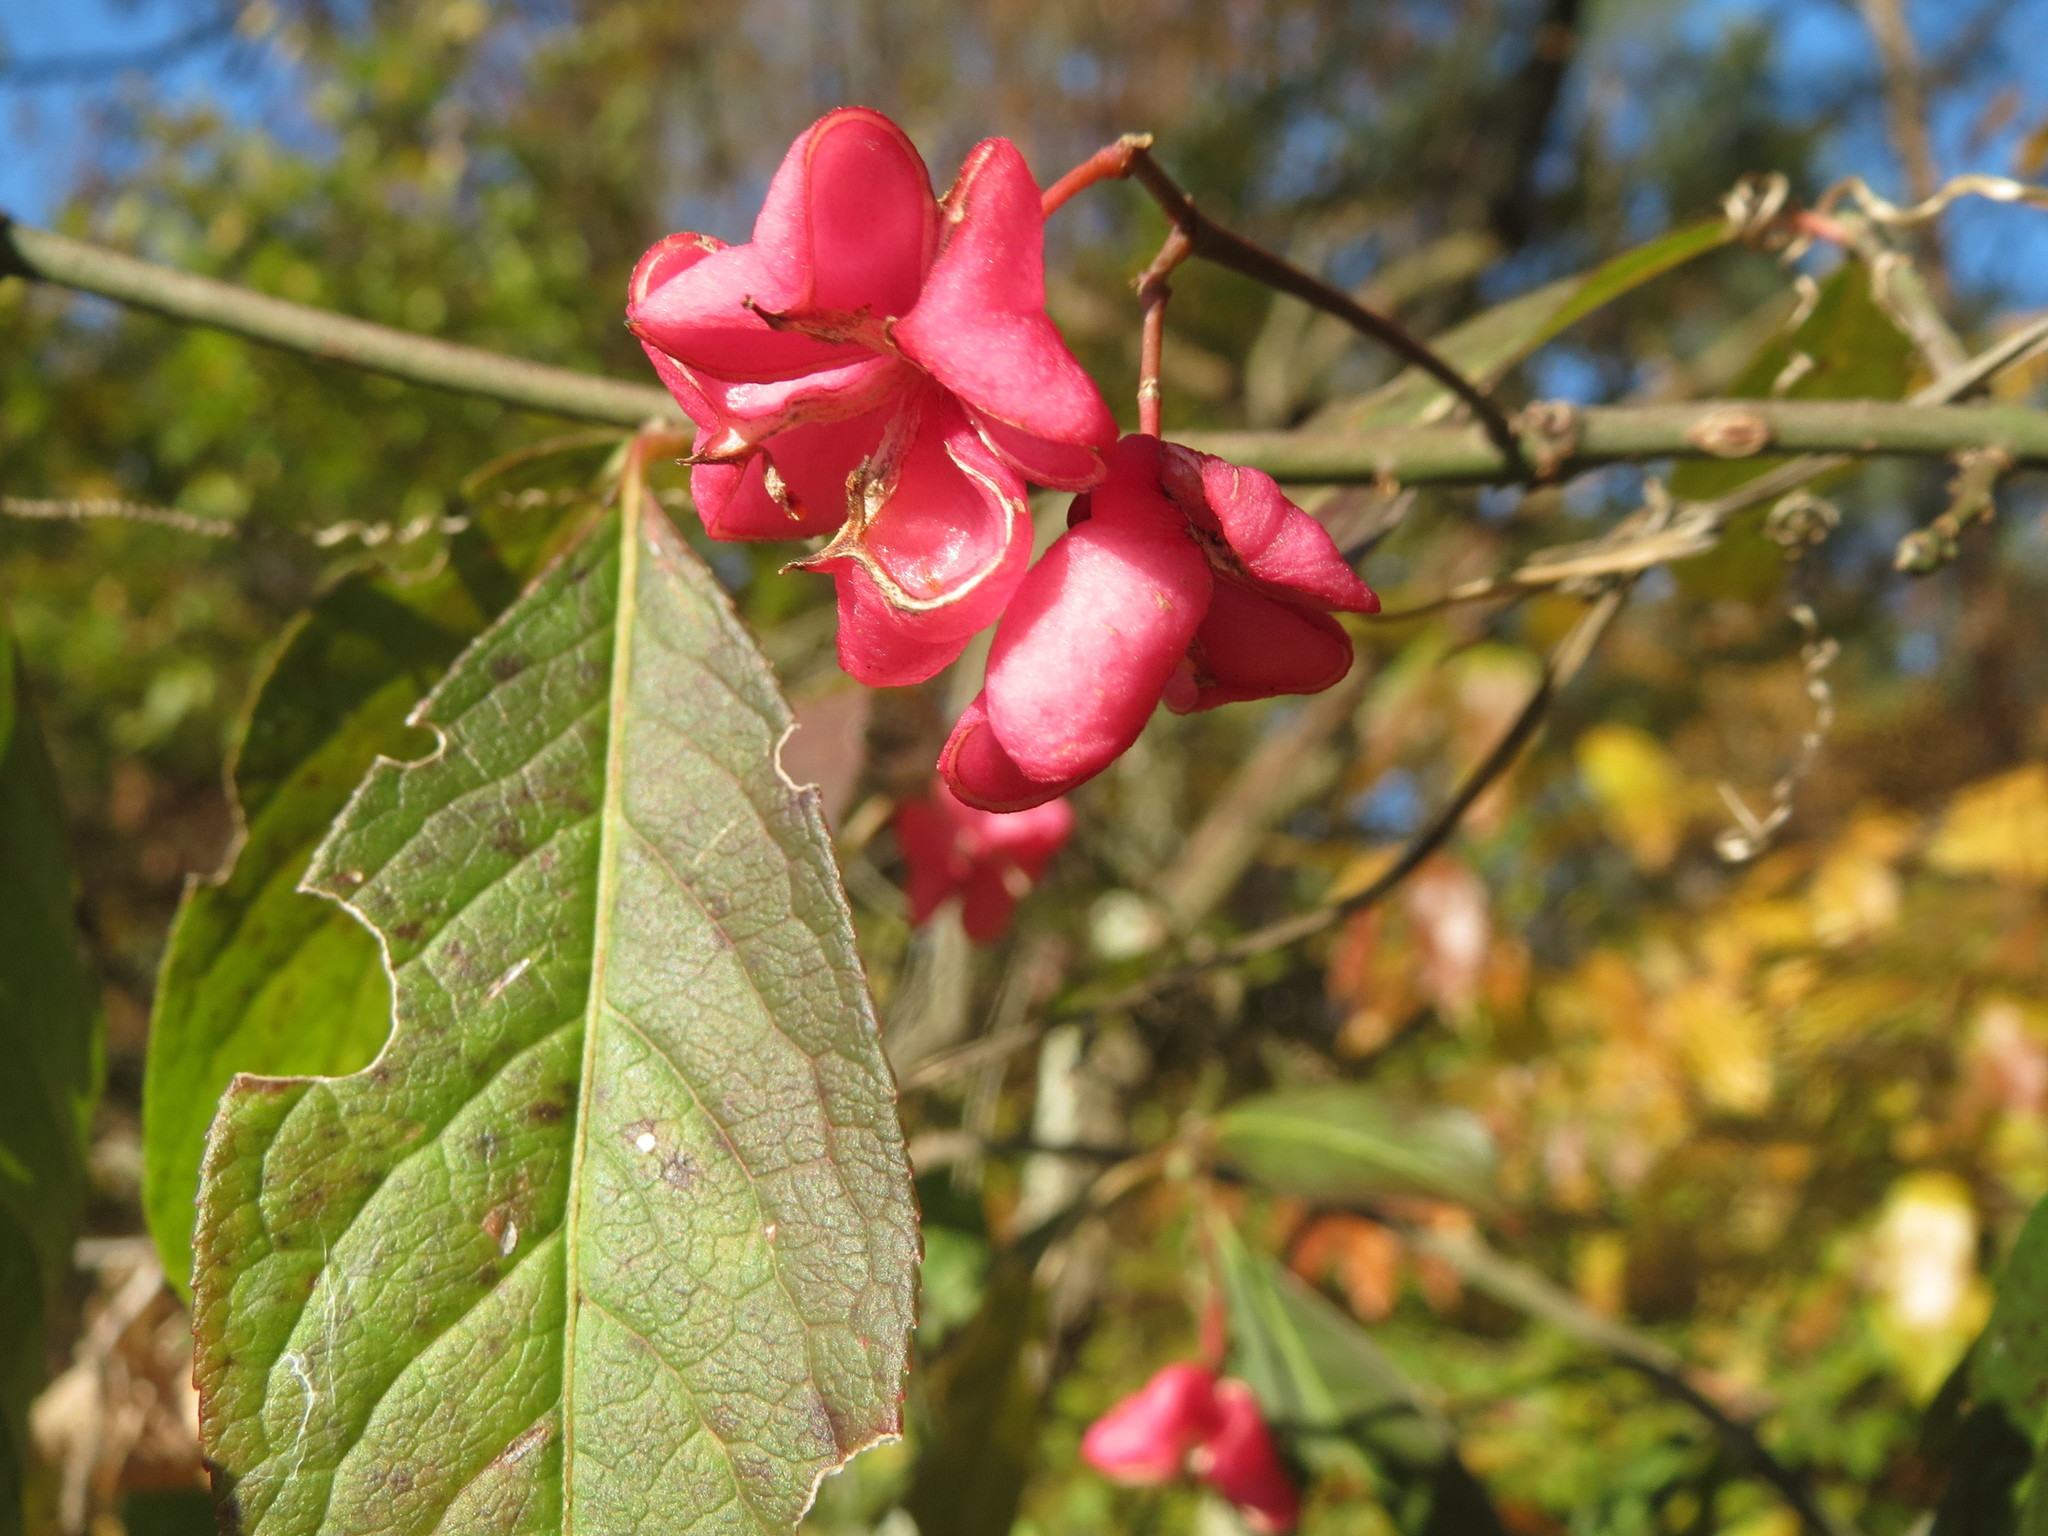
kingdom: Plantae
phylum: Tracheophyta
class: Magnoliopsida
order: Celastrales
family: Celastraceae
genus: Euonymus
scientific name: Euonymus europaeus
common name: Spindle
